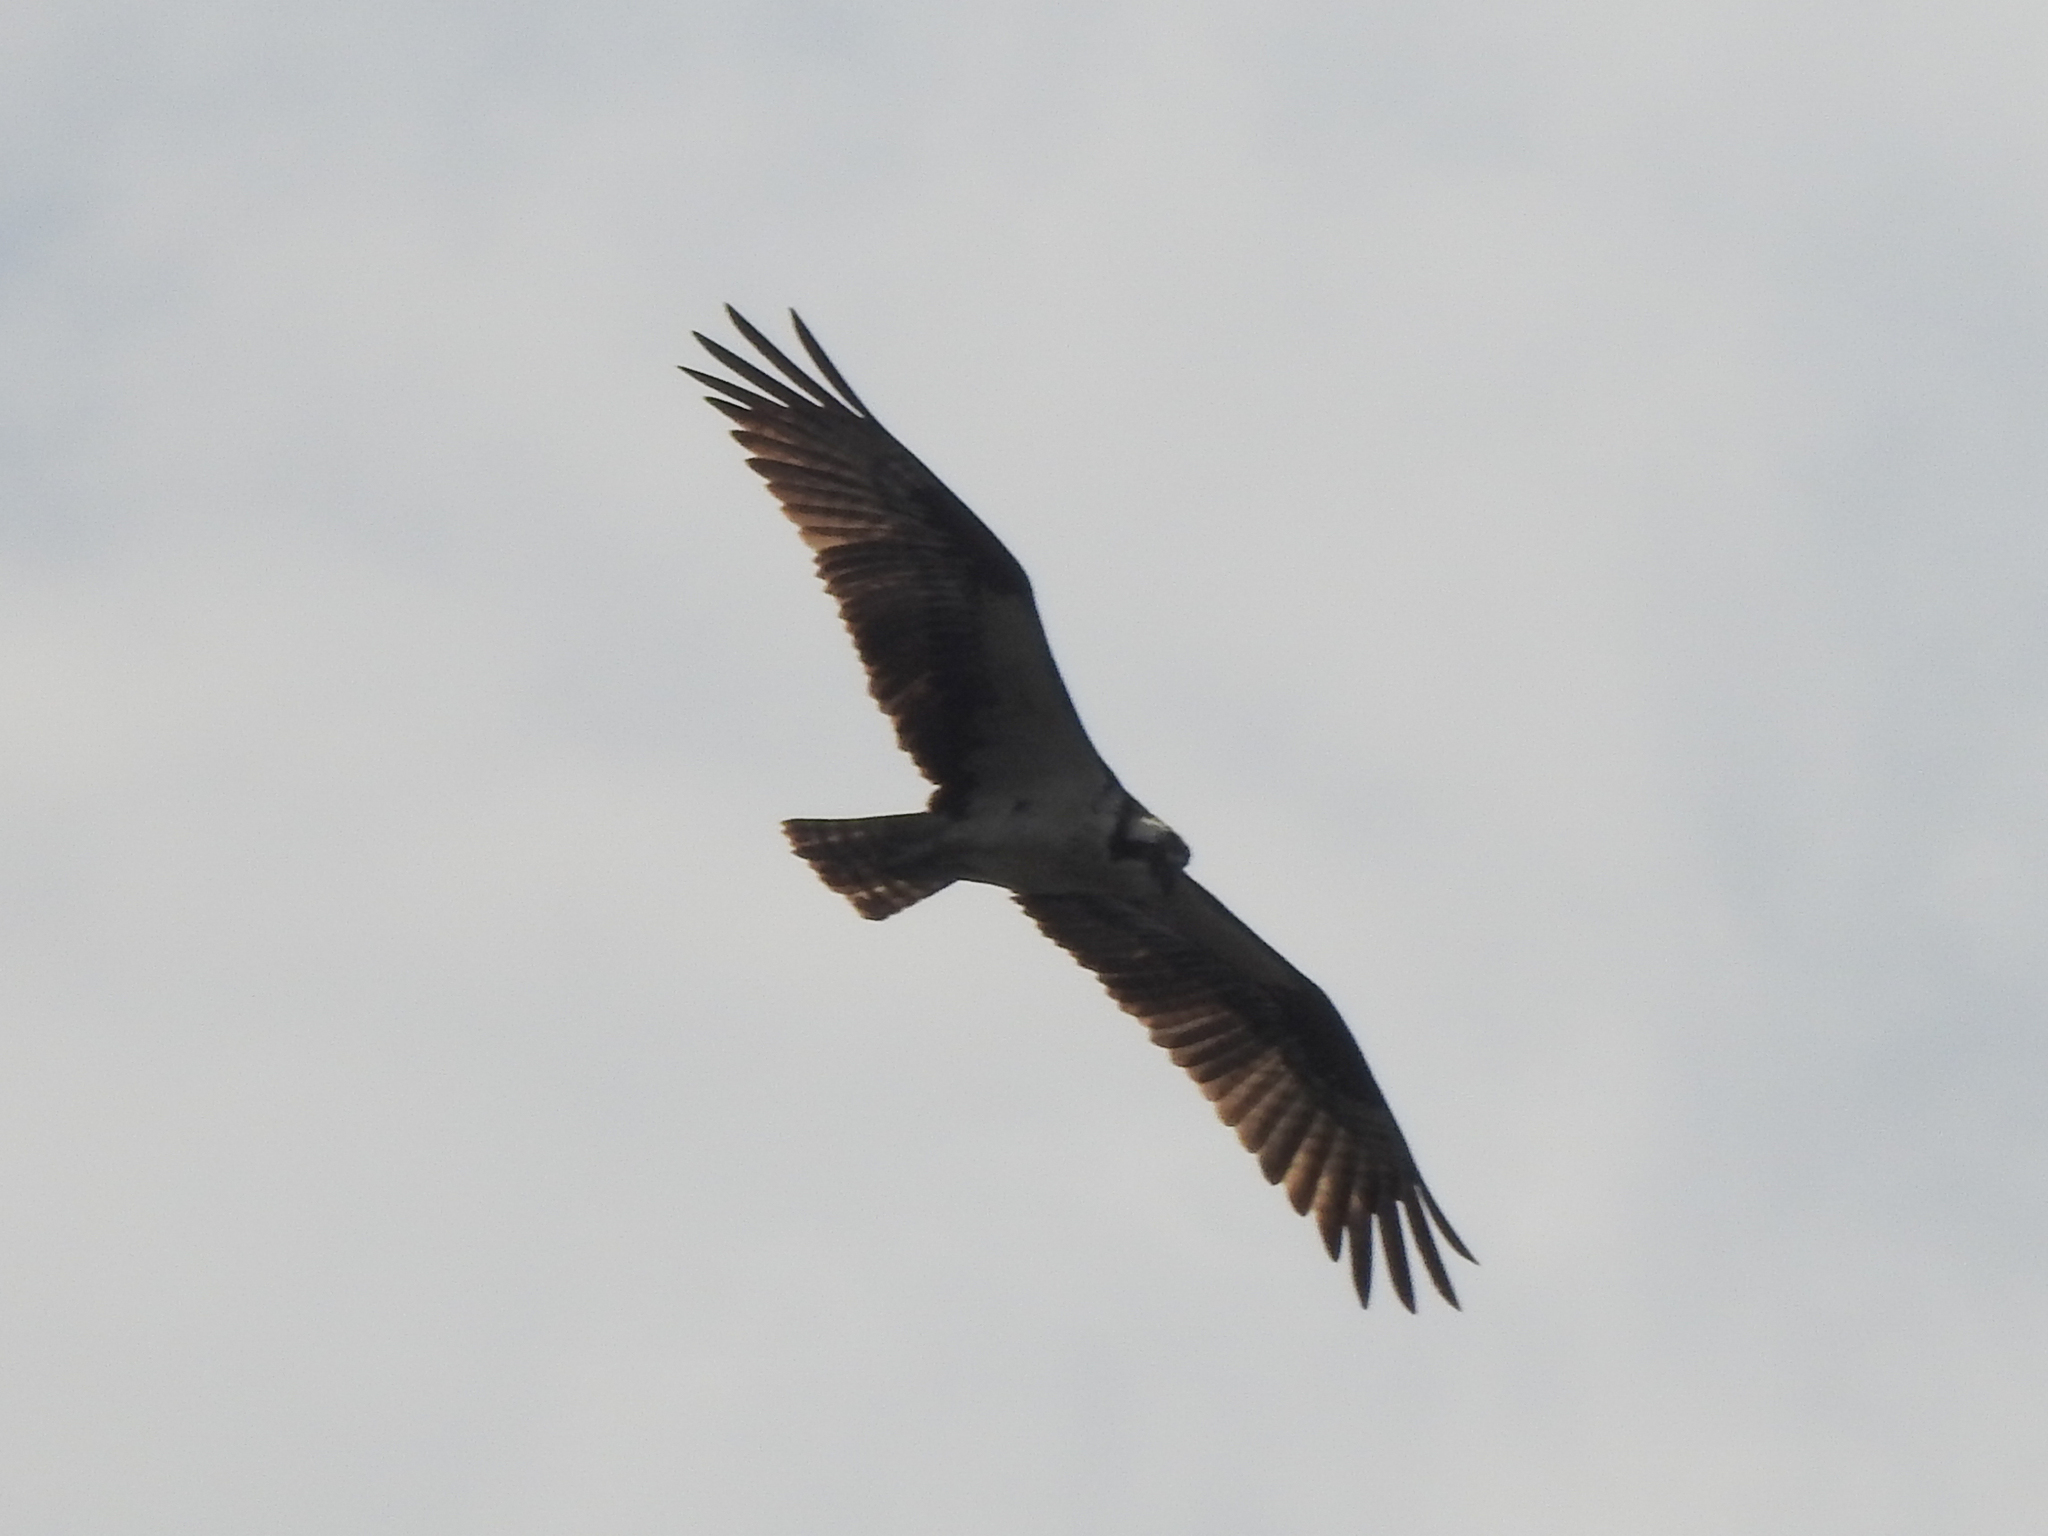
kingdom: Animalia
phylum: Chordata
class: Aves
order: Accipitriformes
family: Pandionidae
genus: Pandion
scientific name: Pandion haliaetus
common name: Osprey
